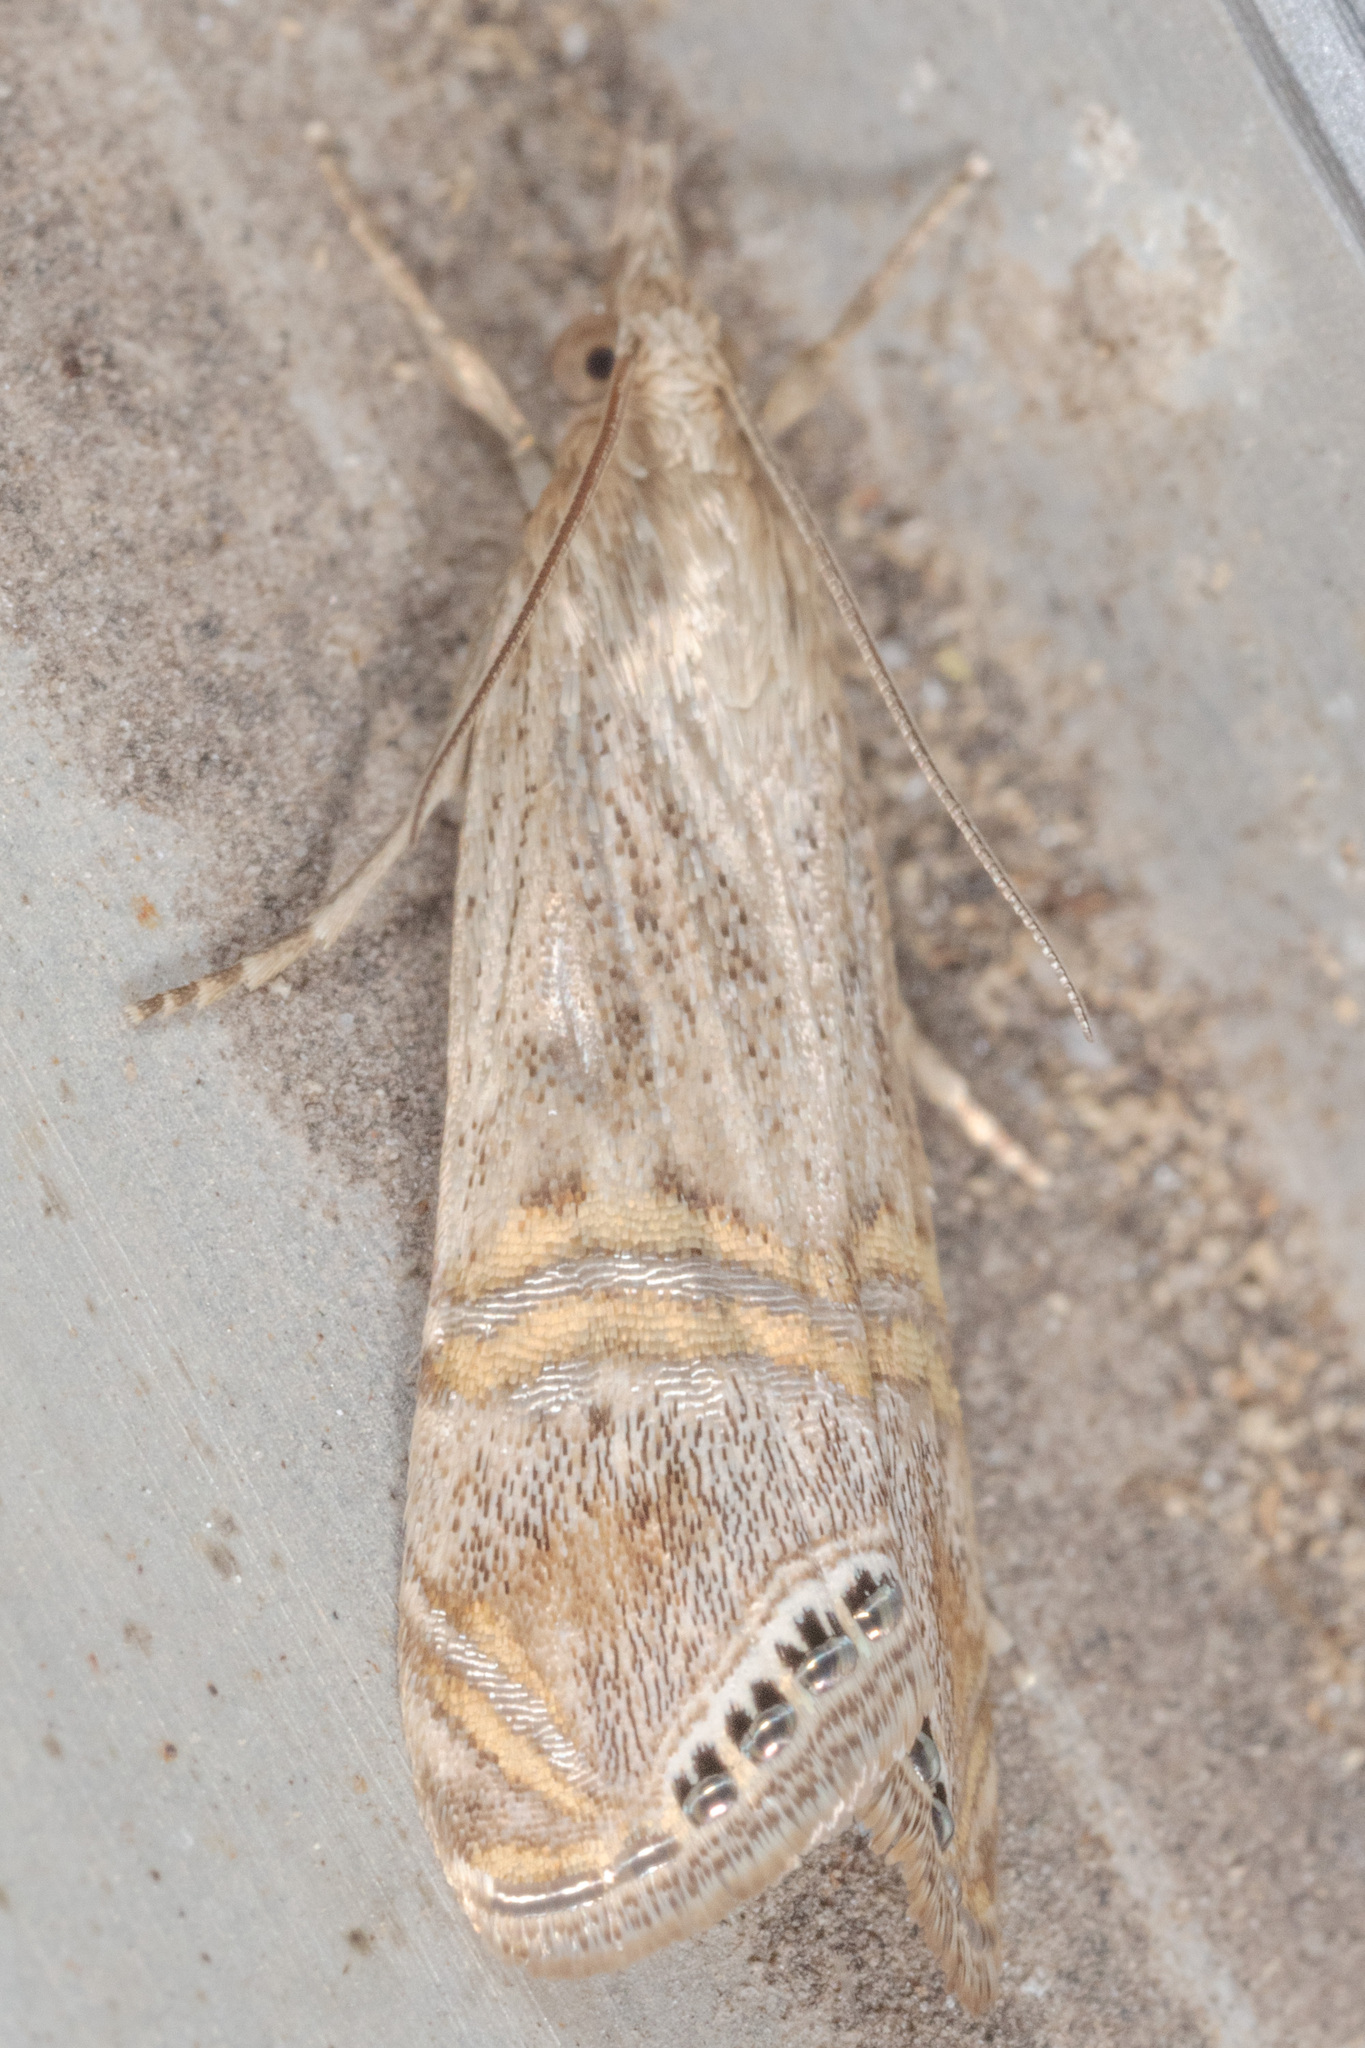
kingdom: Animalia
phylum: Arthropoda
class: Insecta
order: Lepidoptera
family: Crambidae
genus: Euchromius
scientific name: Euchromius ocellea
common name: Necklace veneer moth
